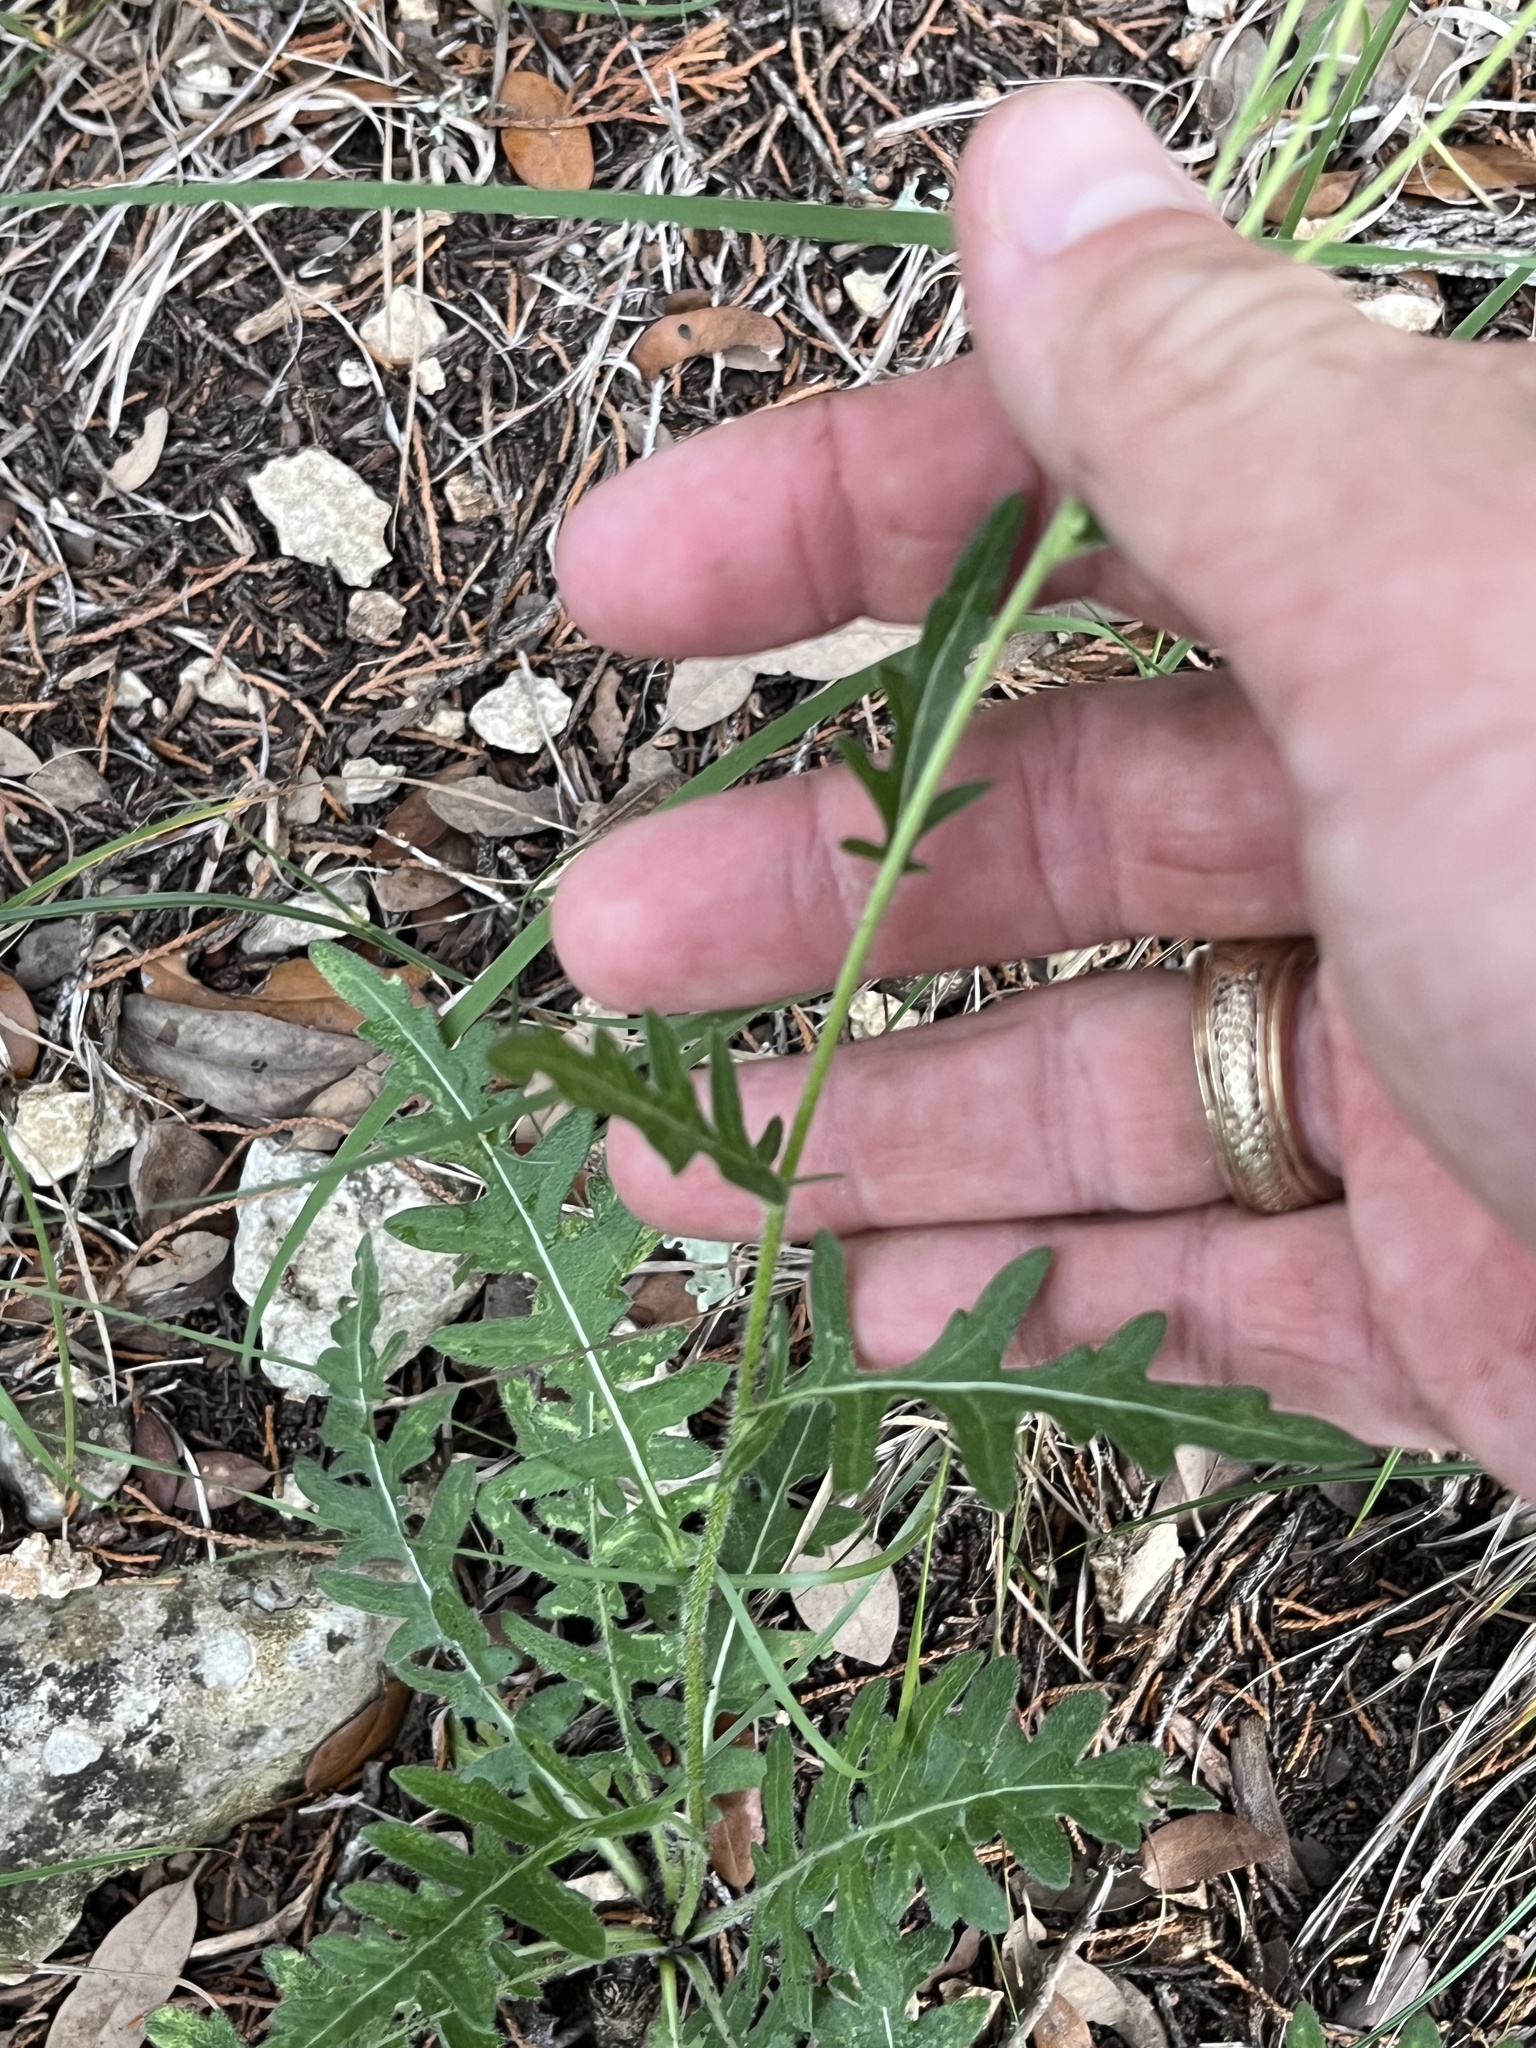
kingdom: Plantae
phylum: Tracheophyta
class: Magnoliopsida
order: Asterales
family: Asteraceae
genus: Engelmannia
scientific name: Engelmannia peristenia
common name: Engelmann's daisy
